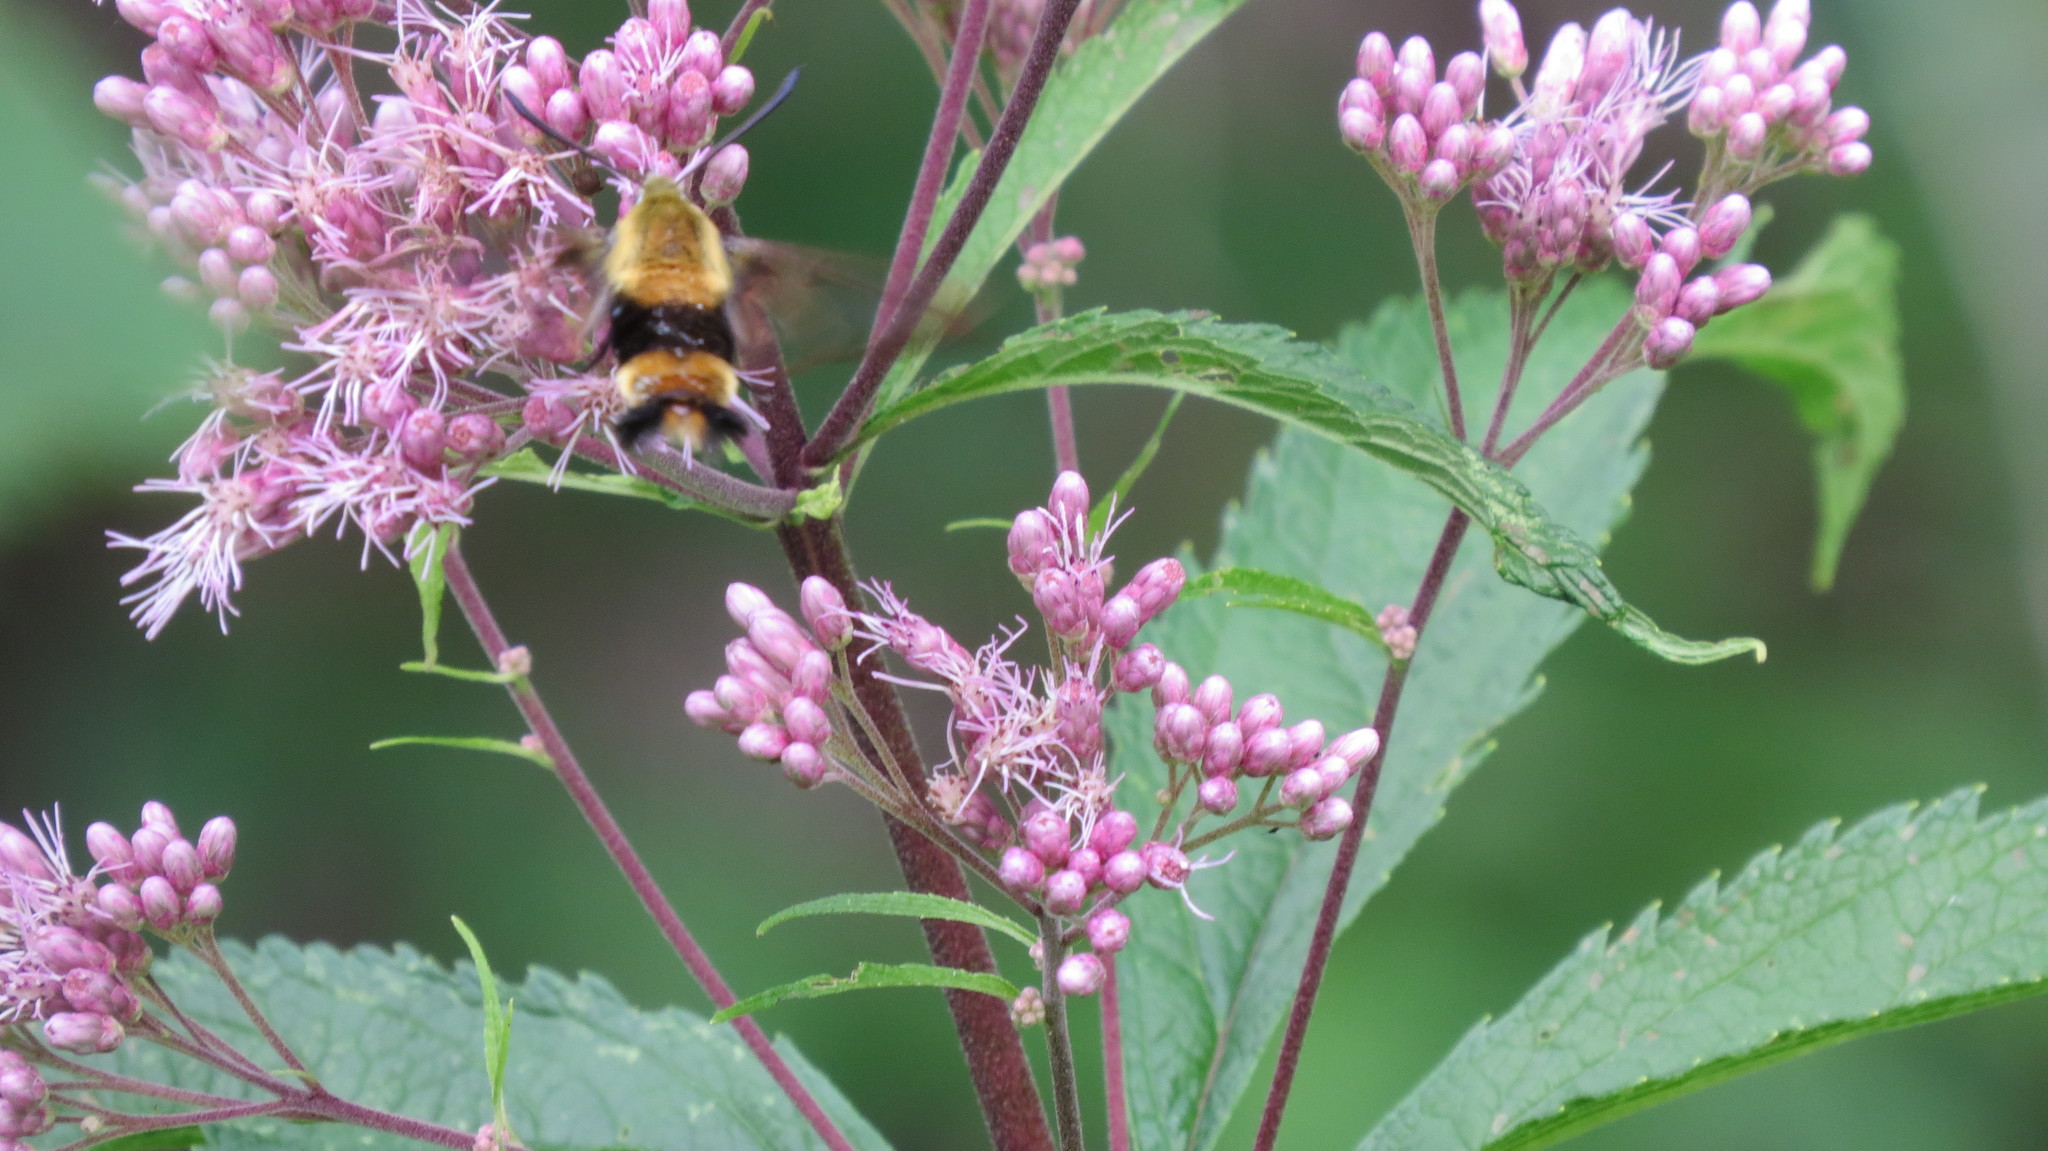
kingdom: Animalia
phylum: Arthropoda
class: Insecta
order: Lepidoptera
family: Sphingidae
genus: Hemaris
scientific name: Hemaris diffinis
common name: Bumblebee moth
